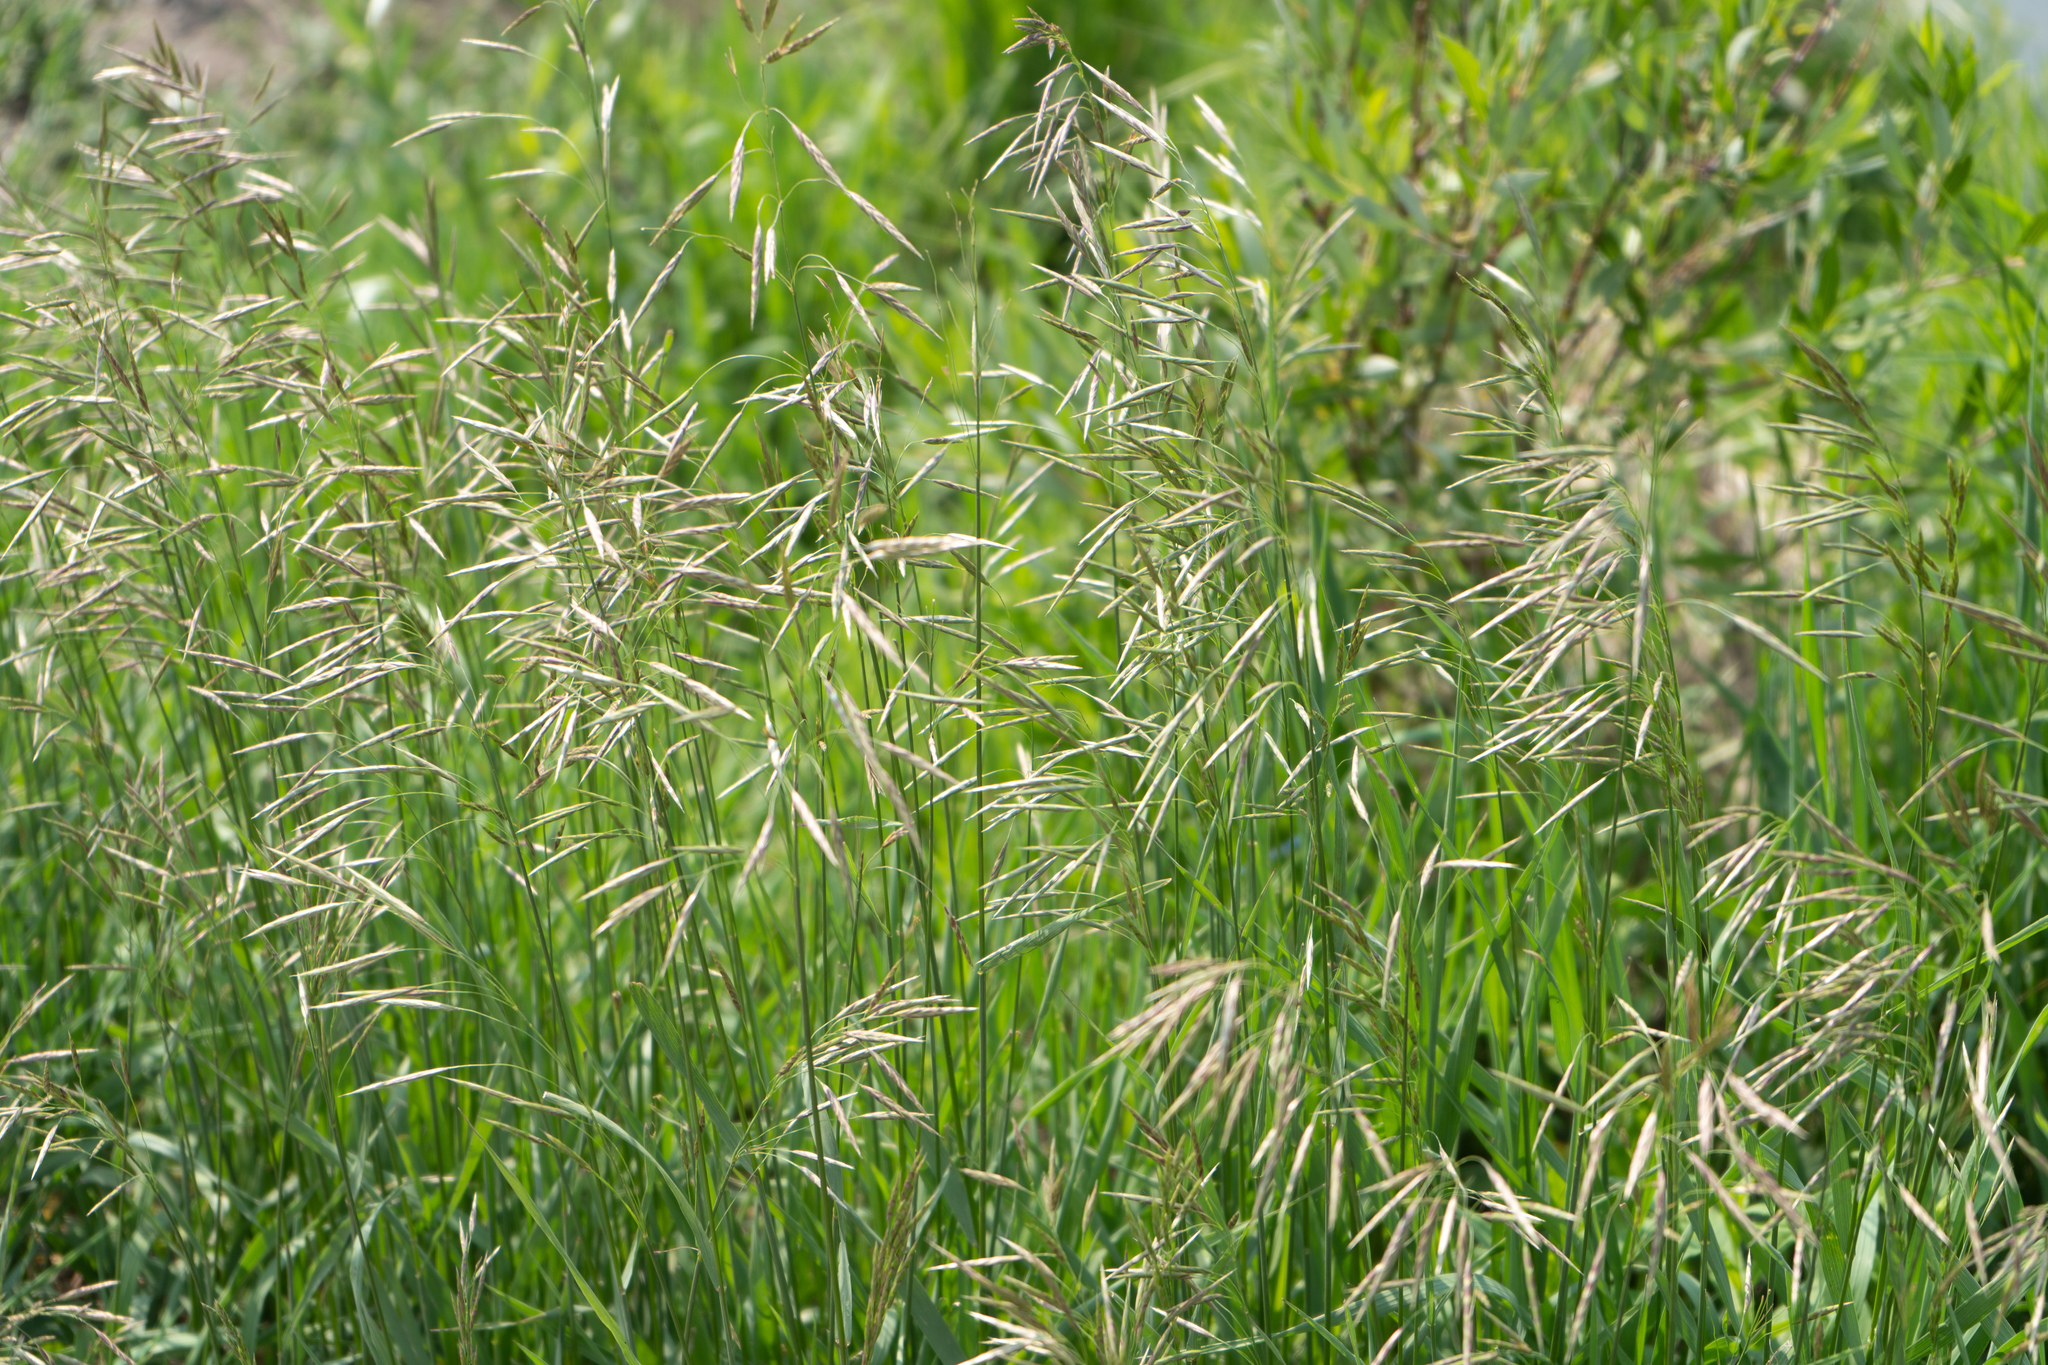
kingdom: Plantae
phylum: Tracheophyta
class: Liliopsida
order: Poales
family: Poaceae
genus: Bromus
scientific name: Bromus inermis
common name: Smooth brome
